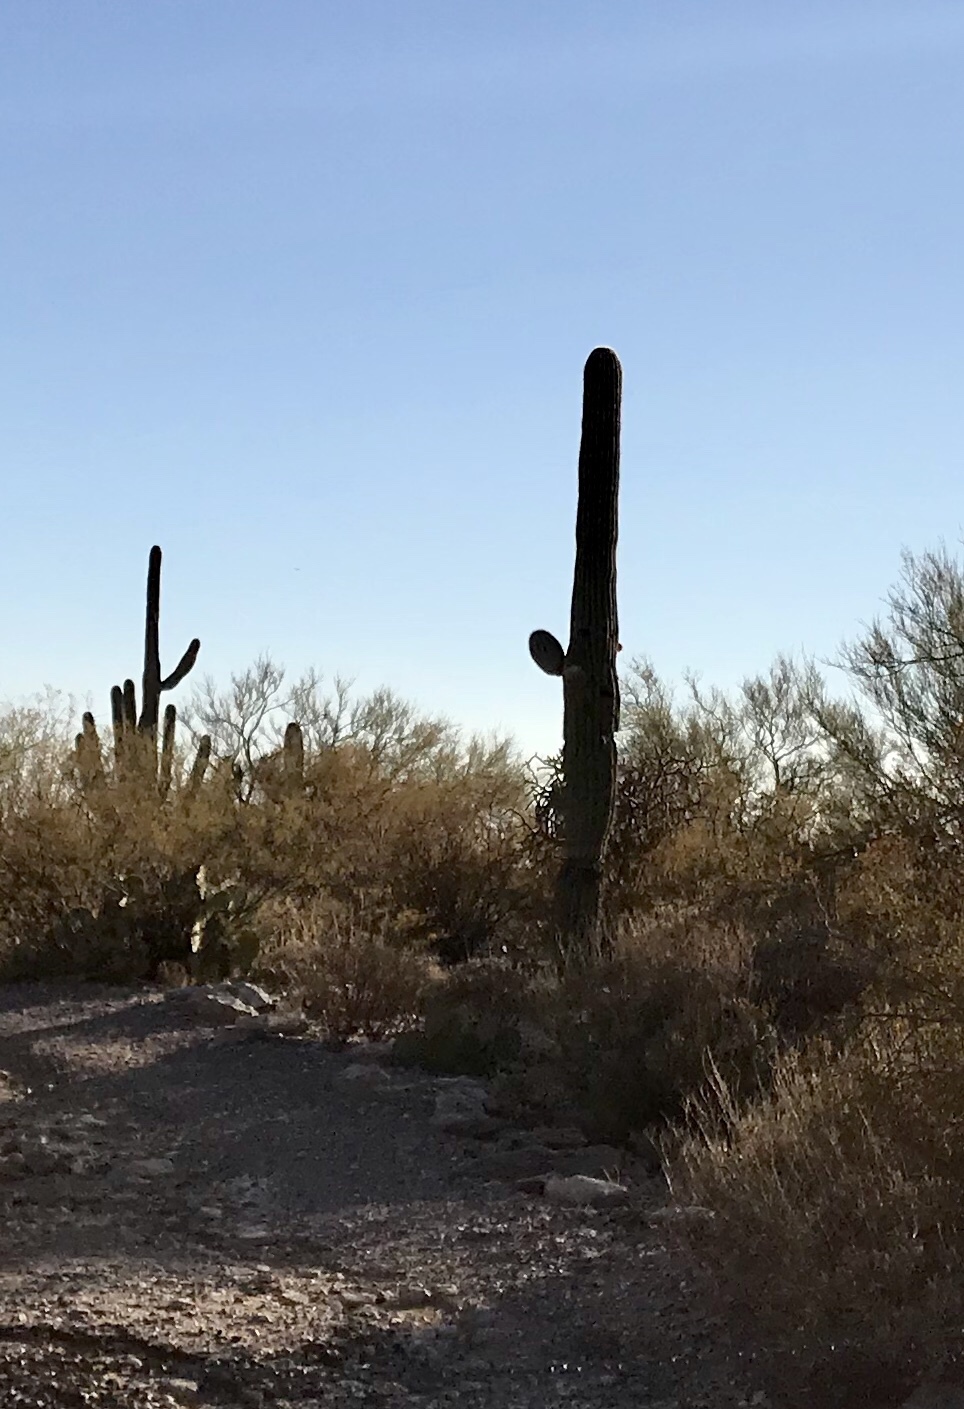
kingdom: Plantae
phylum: Tracheophyta
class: Magnoliopsida
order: Caryophyllales
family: Cactaceae
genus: Carnegiea
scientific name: Carnegiea gigantea
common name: Saguaro
